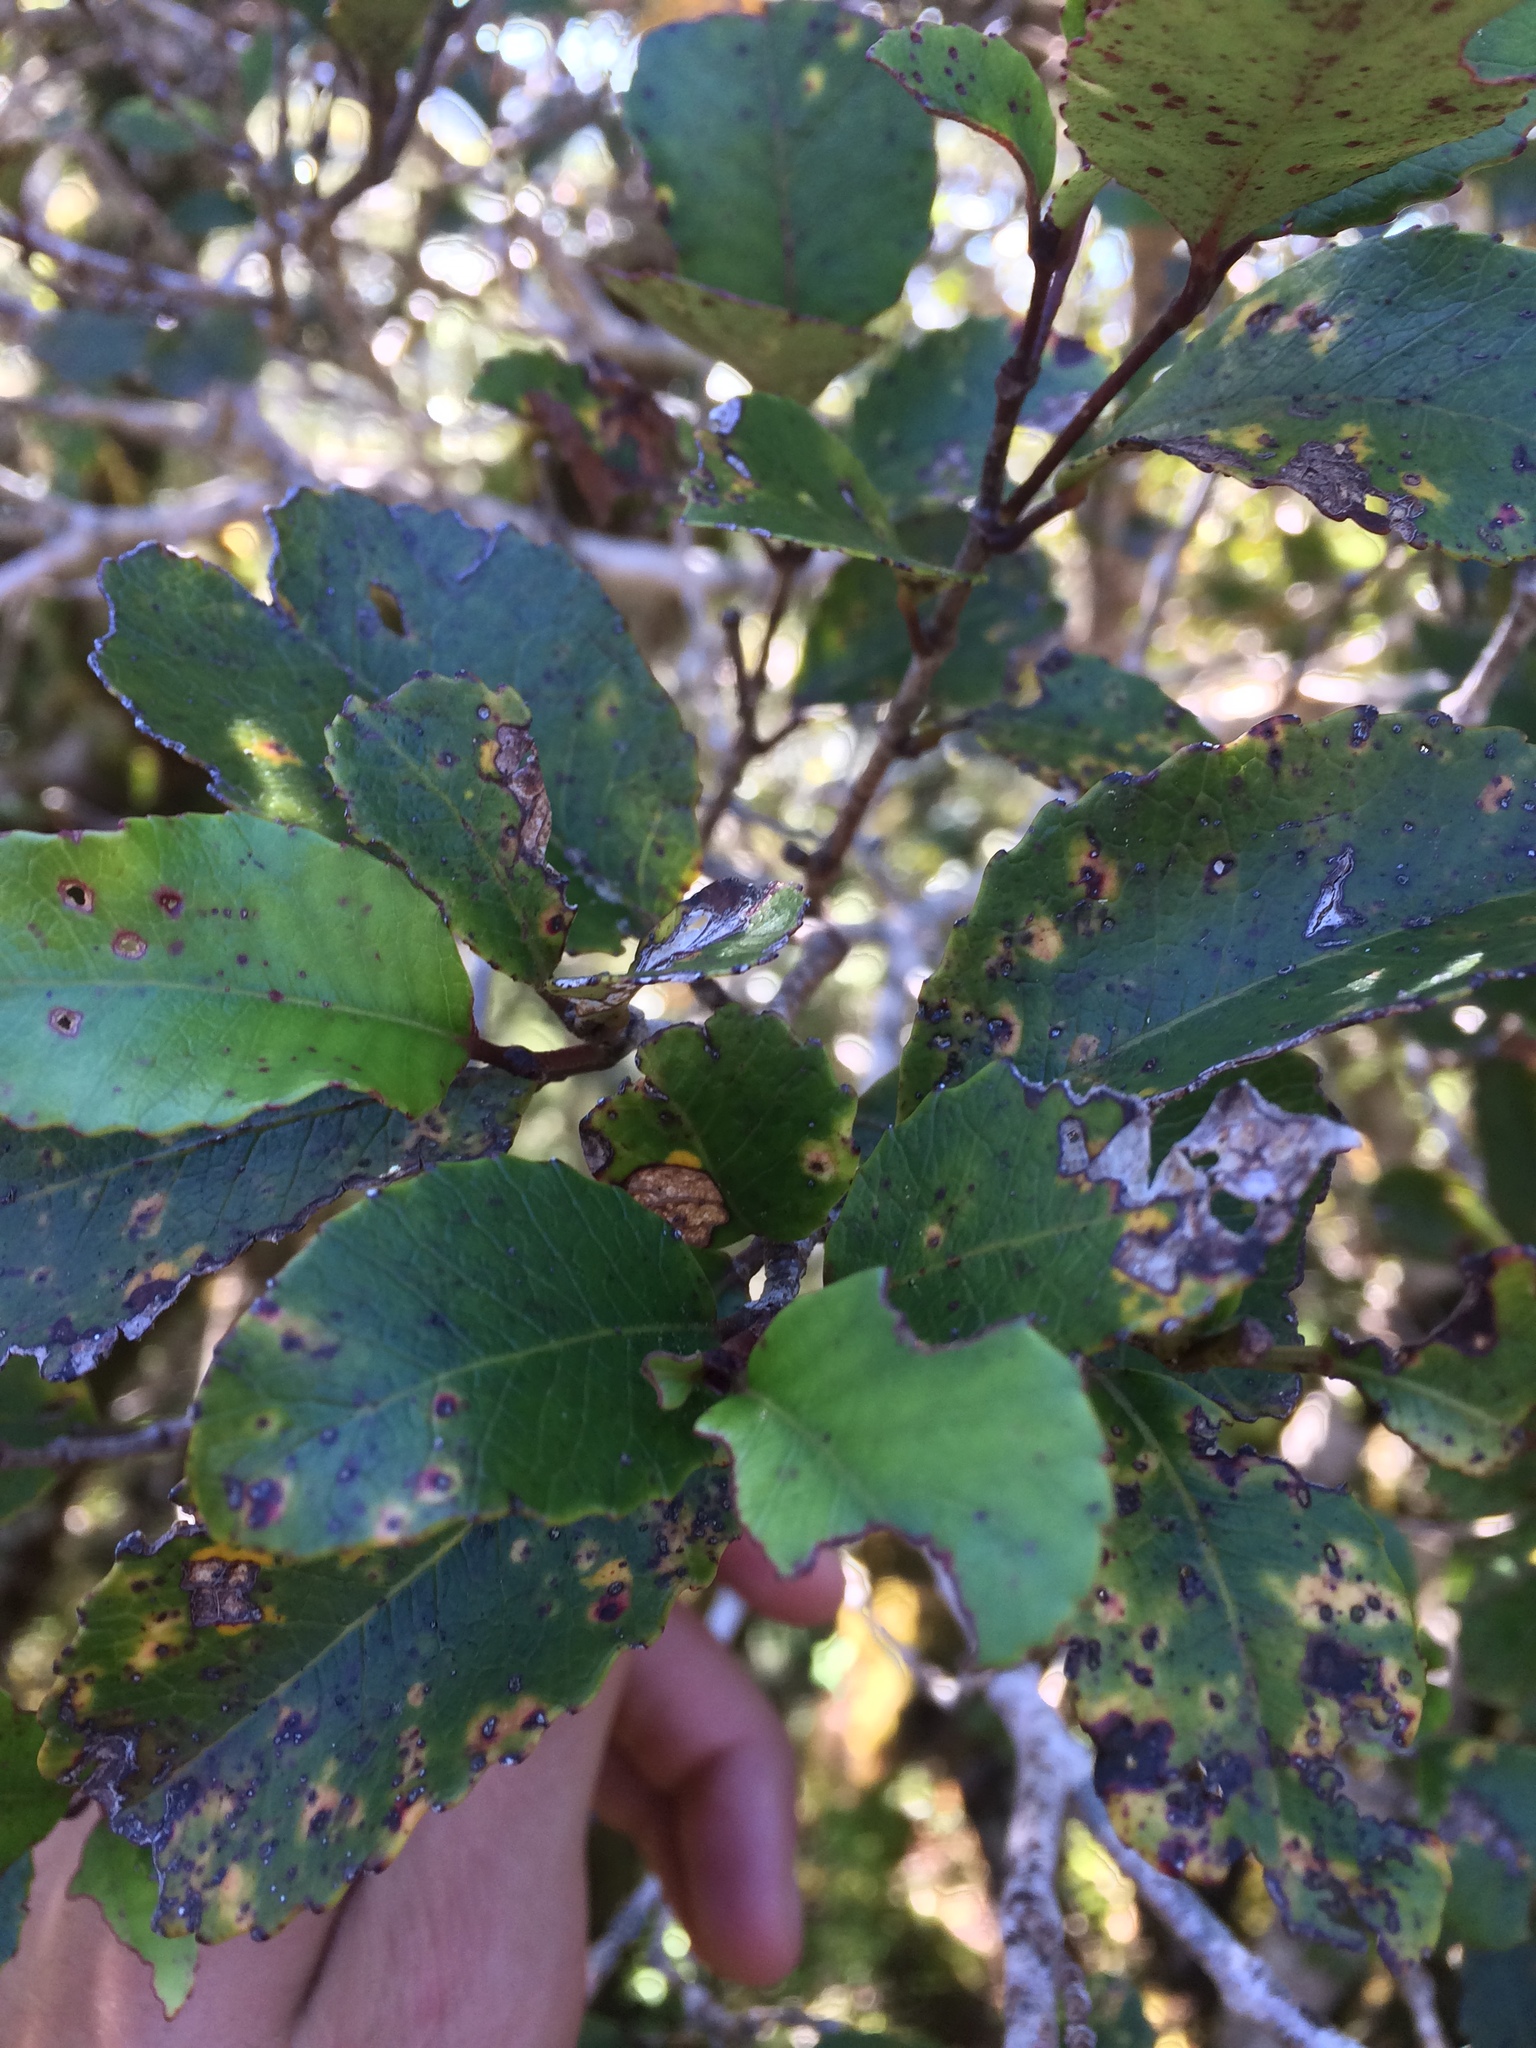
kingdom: Plantae
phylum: Tracheophyta
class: Magnoliopsida
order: Oxalidales
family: Cunoniaceae
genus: Pterophylla
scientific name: Pterophylla racemosa
